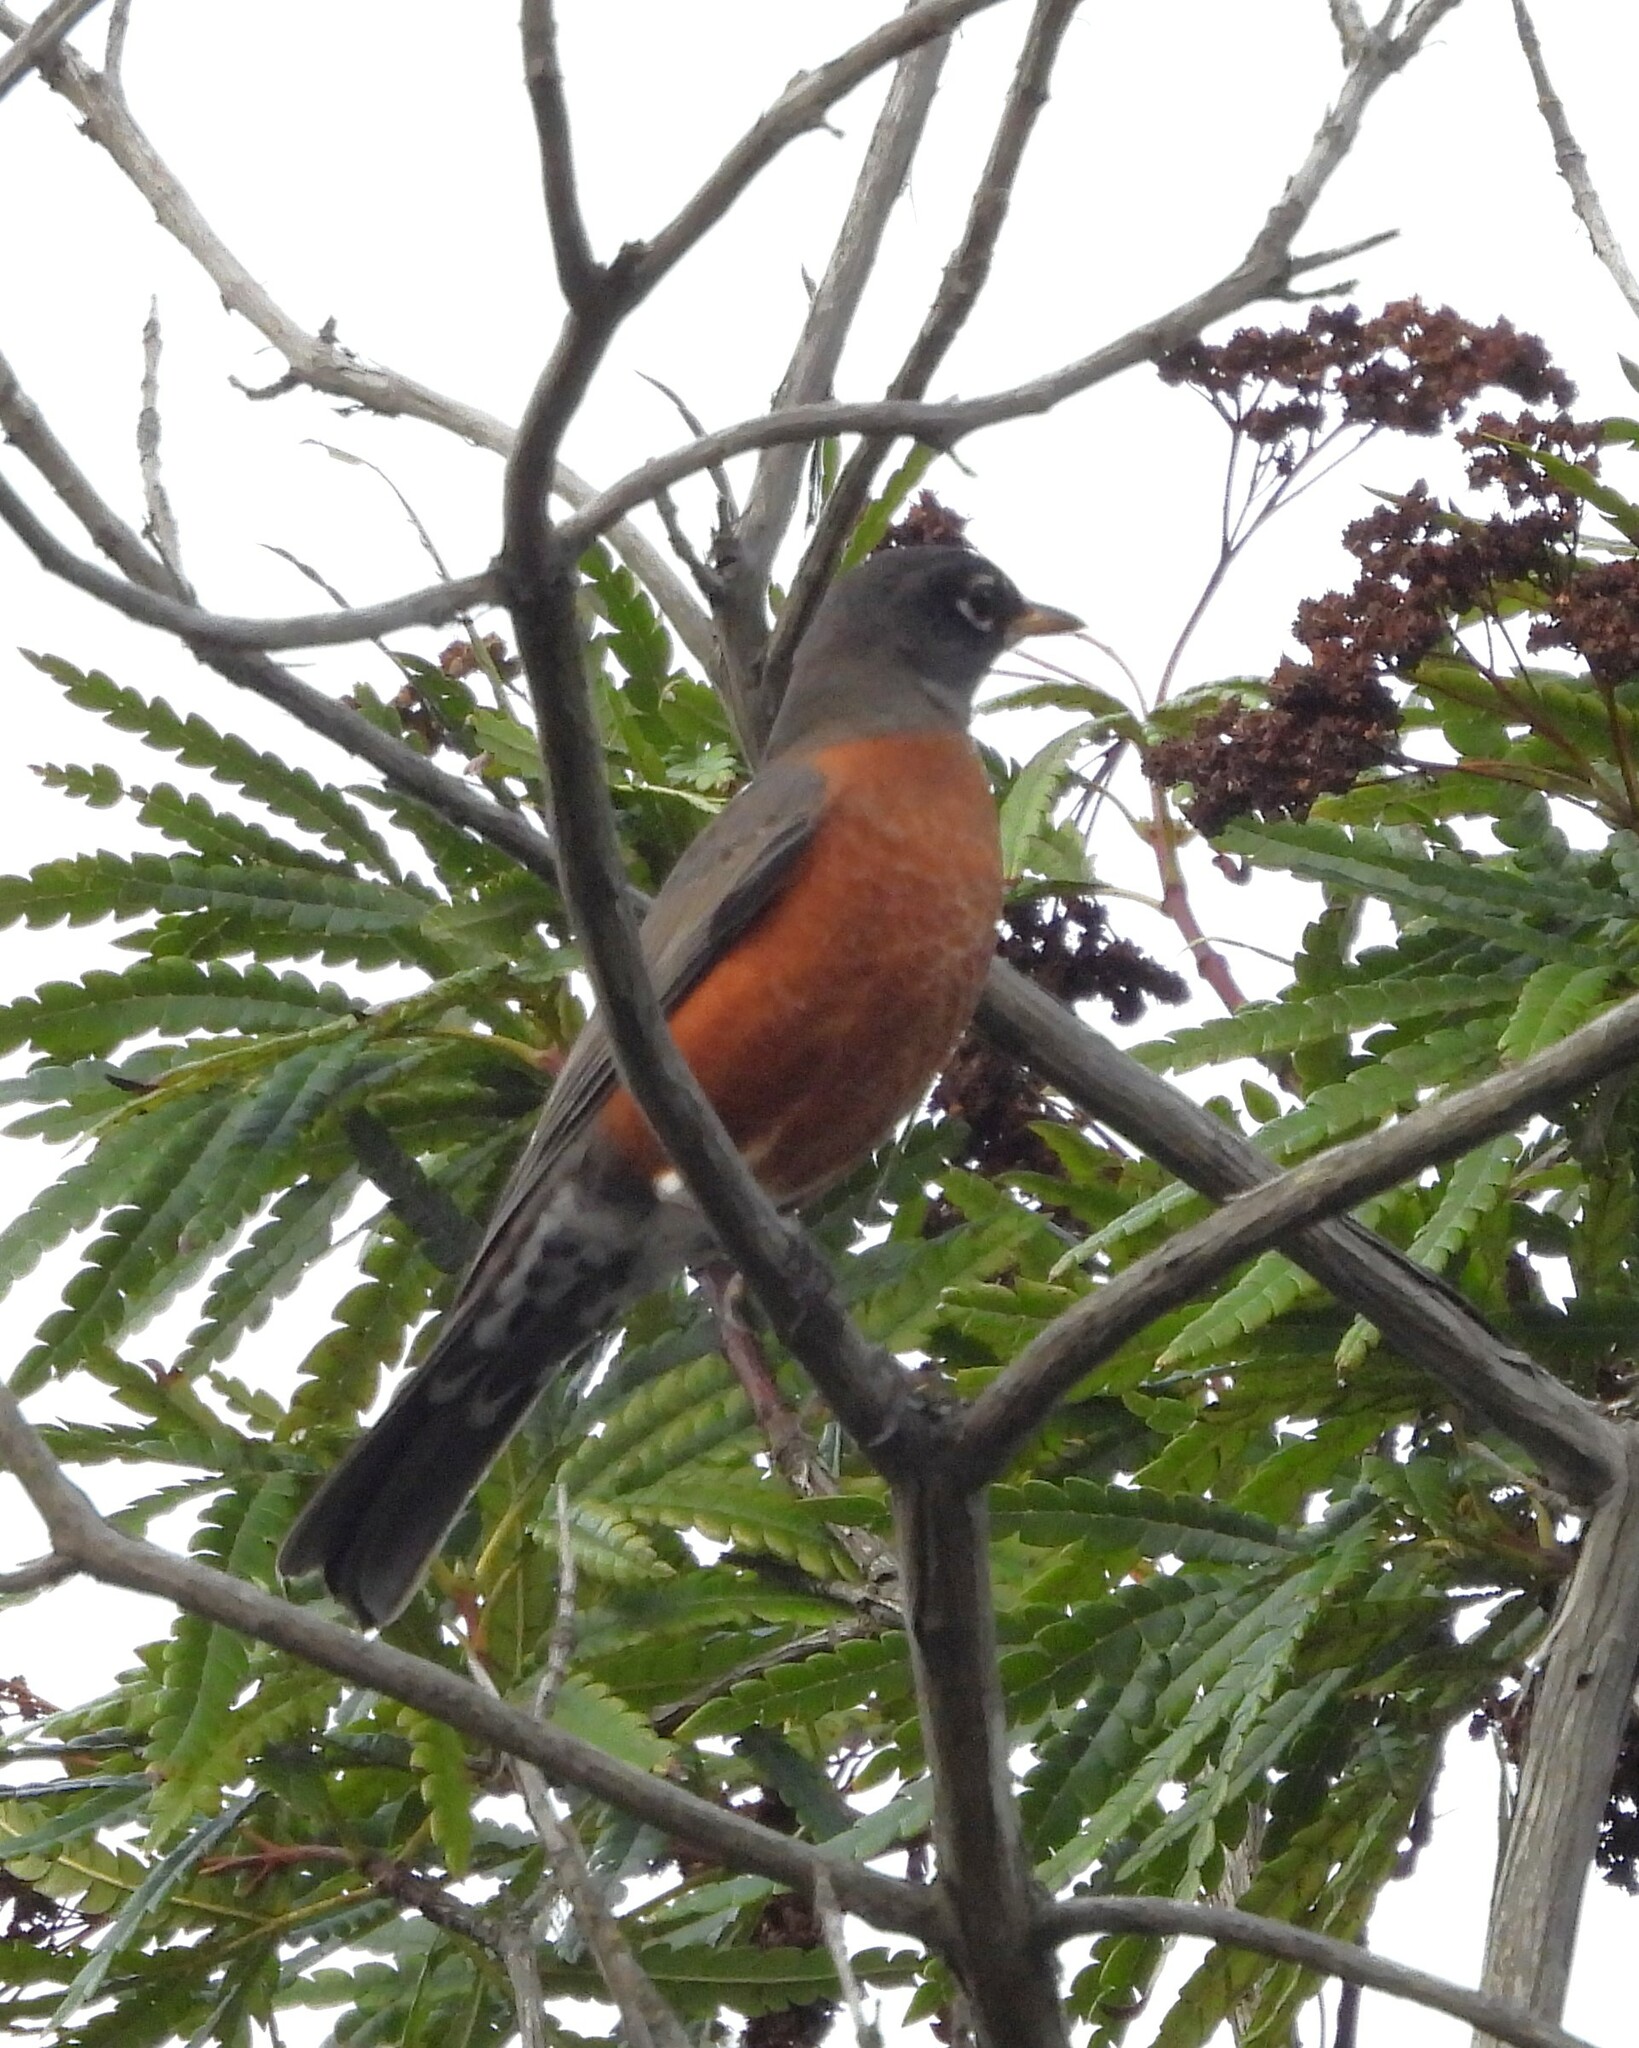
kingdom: Animalia
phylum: Chordata
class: Aves
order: Passeriformes
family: Turdidae
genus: Turdus
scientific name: Turdus migratorius
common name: American robin
